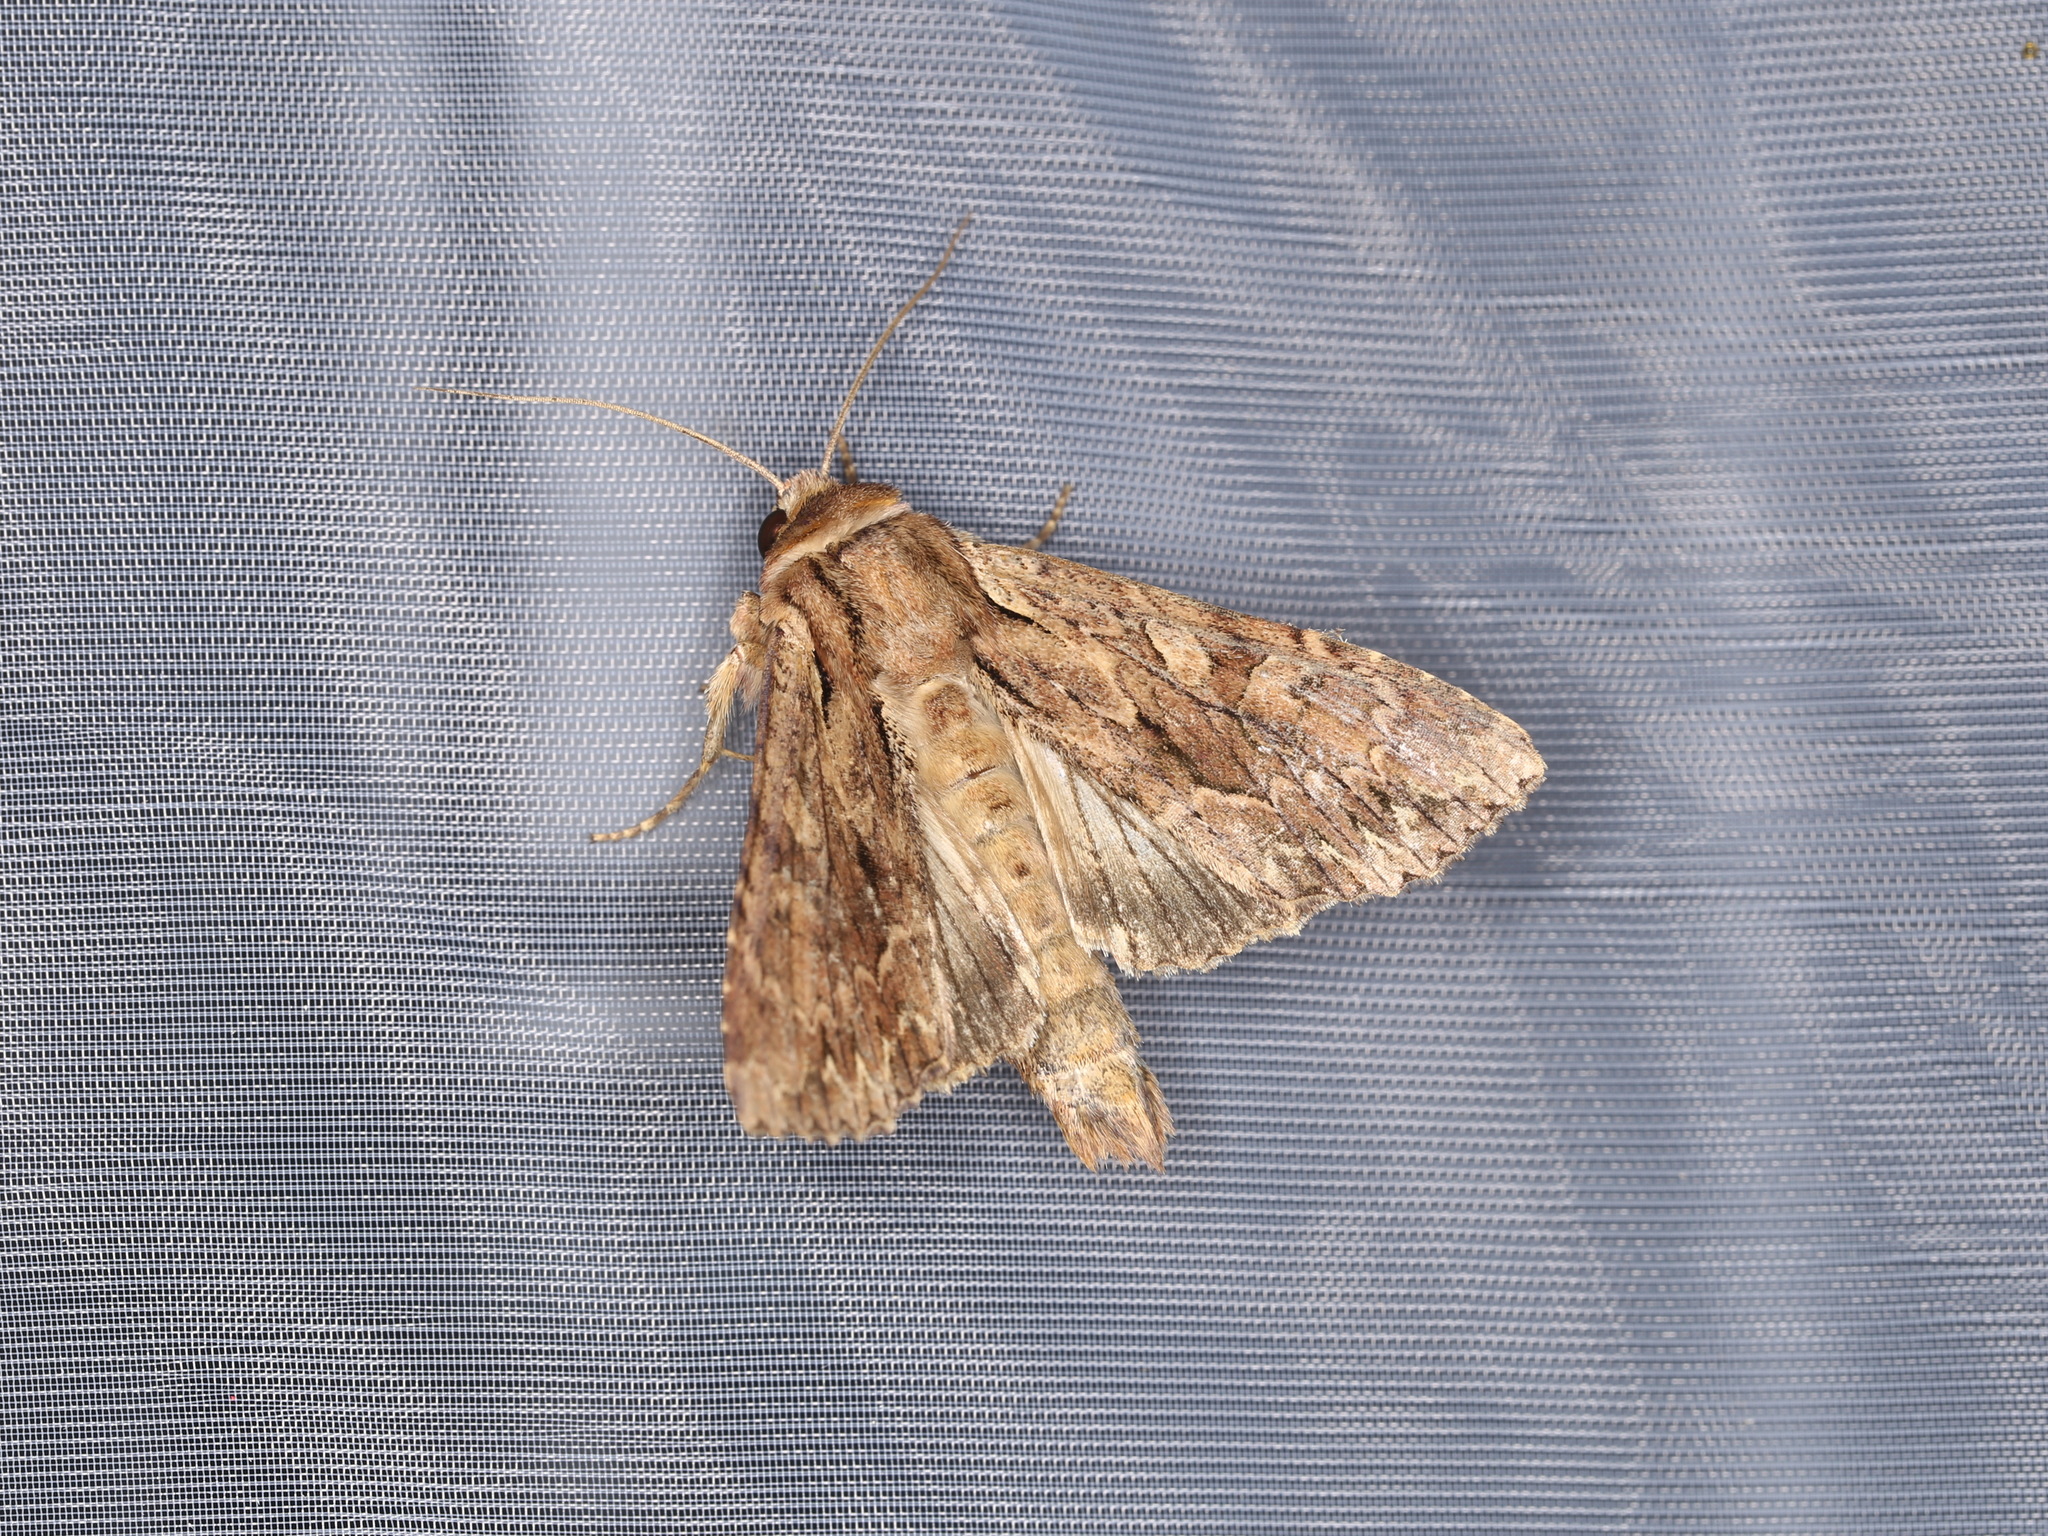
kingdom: Animalia
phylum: Arthropoda
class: Insecta
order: Lepidoptera
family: Noctuidae
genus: Apamea
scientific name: Apamea monoglypha
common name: Dark arches
